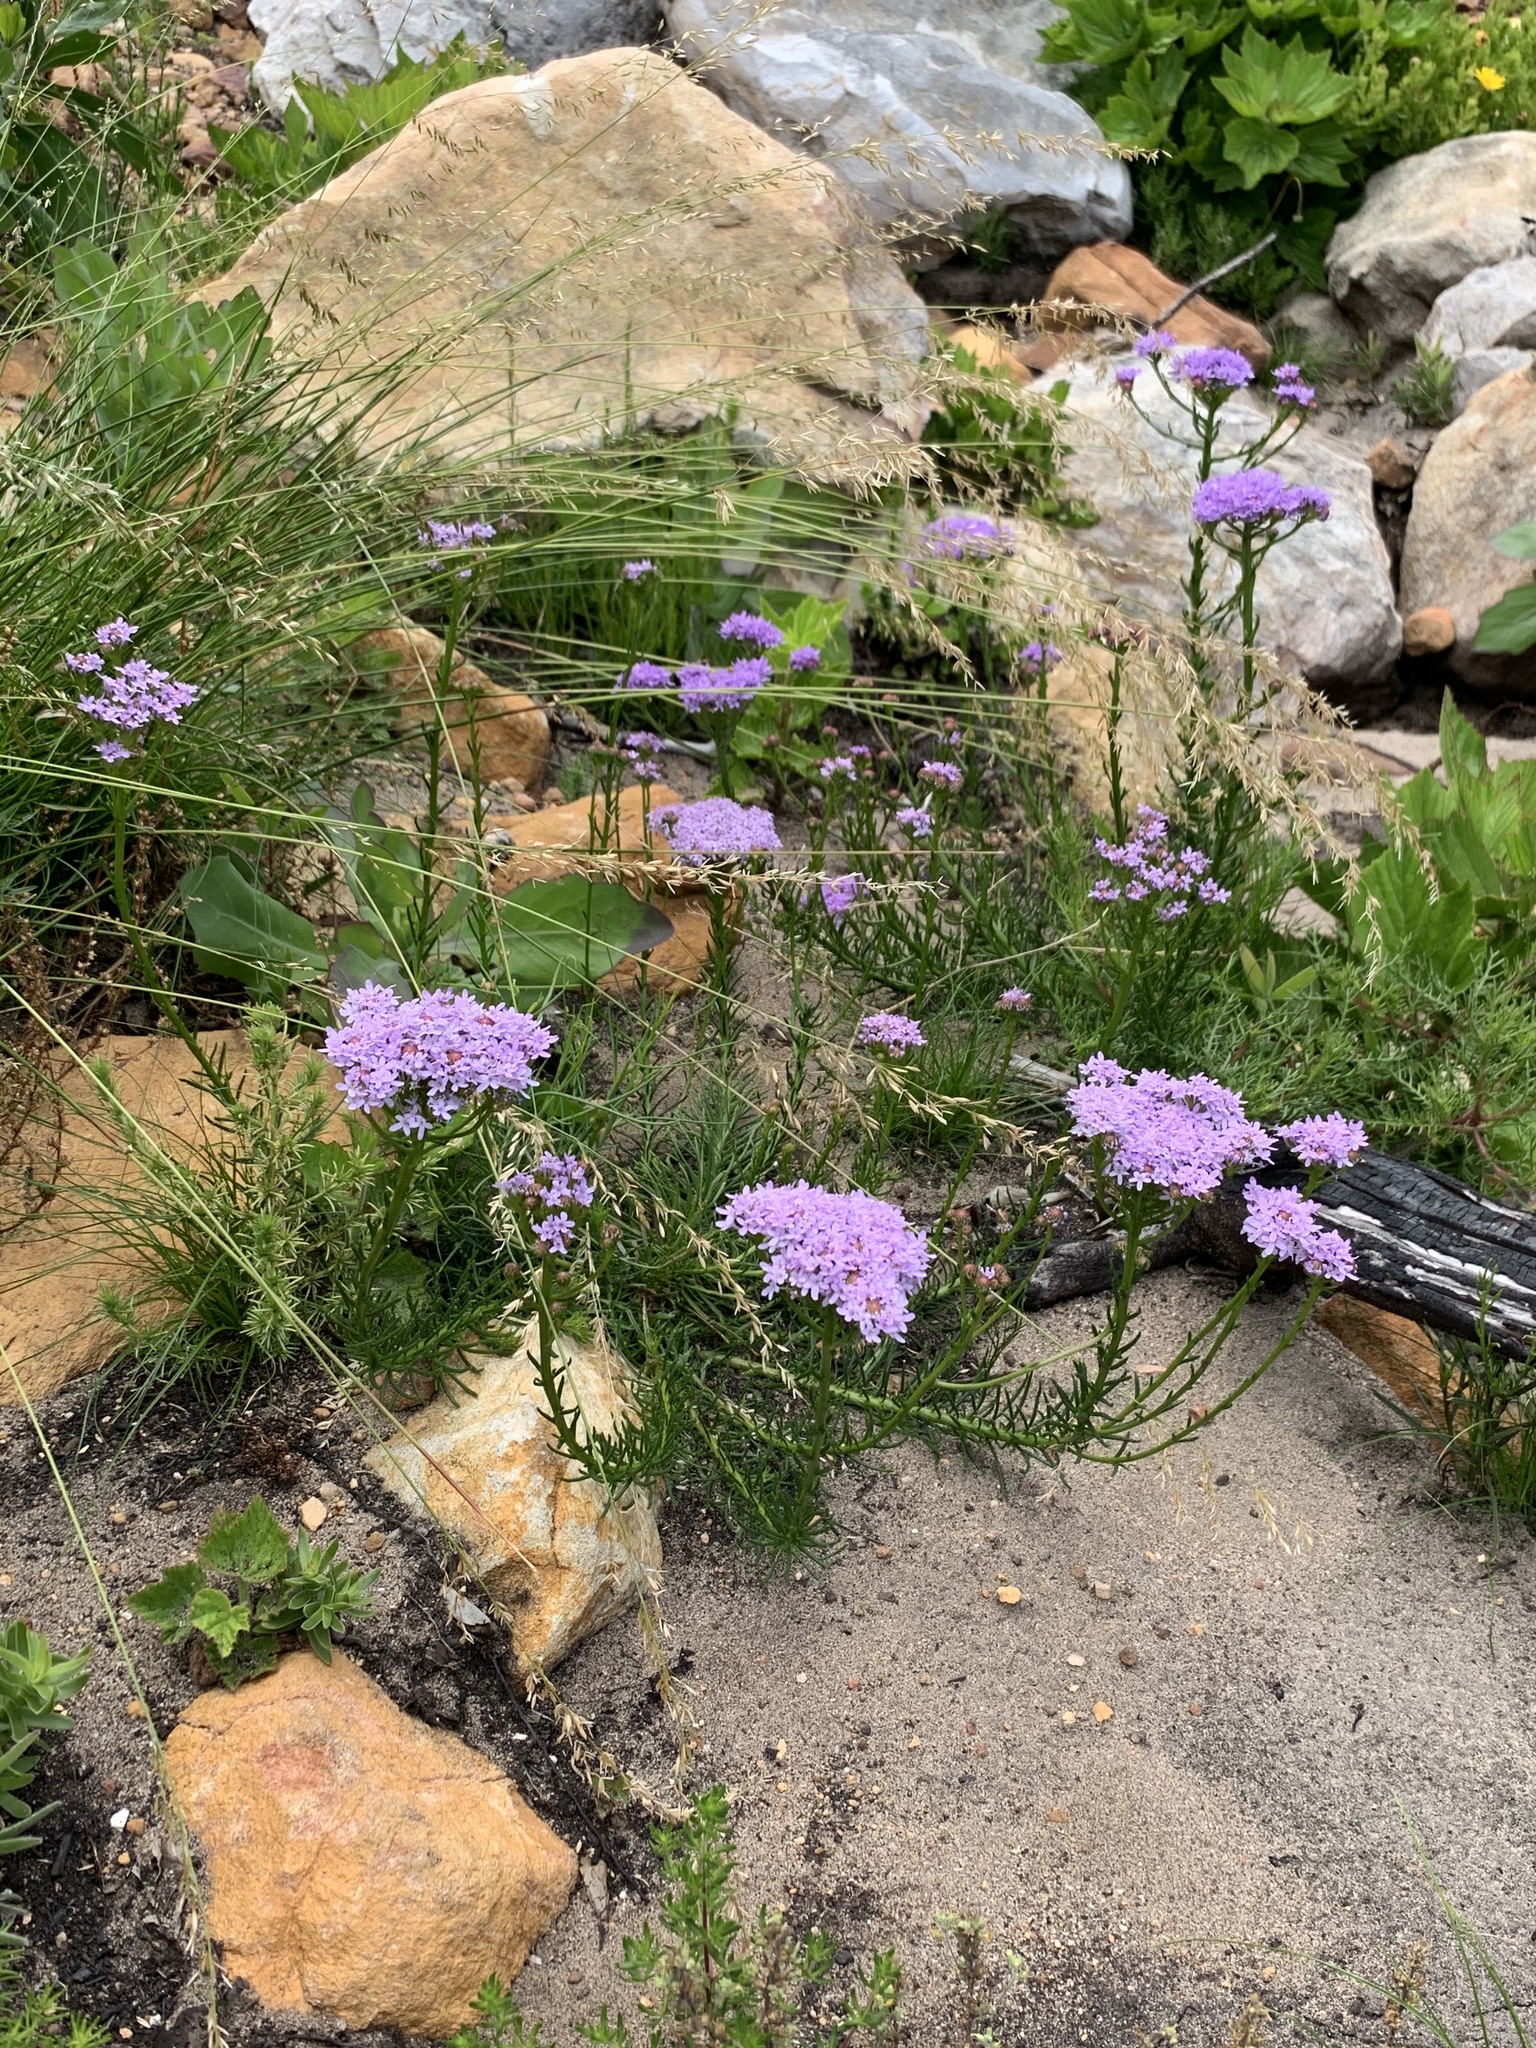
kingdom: Plantae
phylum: Tracheophyta
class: Magnoliopsida
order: Lamiales
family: Scrophulariaceae
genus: Pseudoselago
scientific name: Pseudoselago spuria
